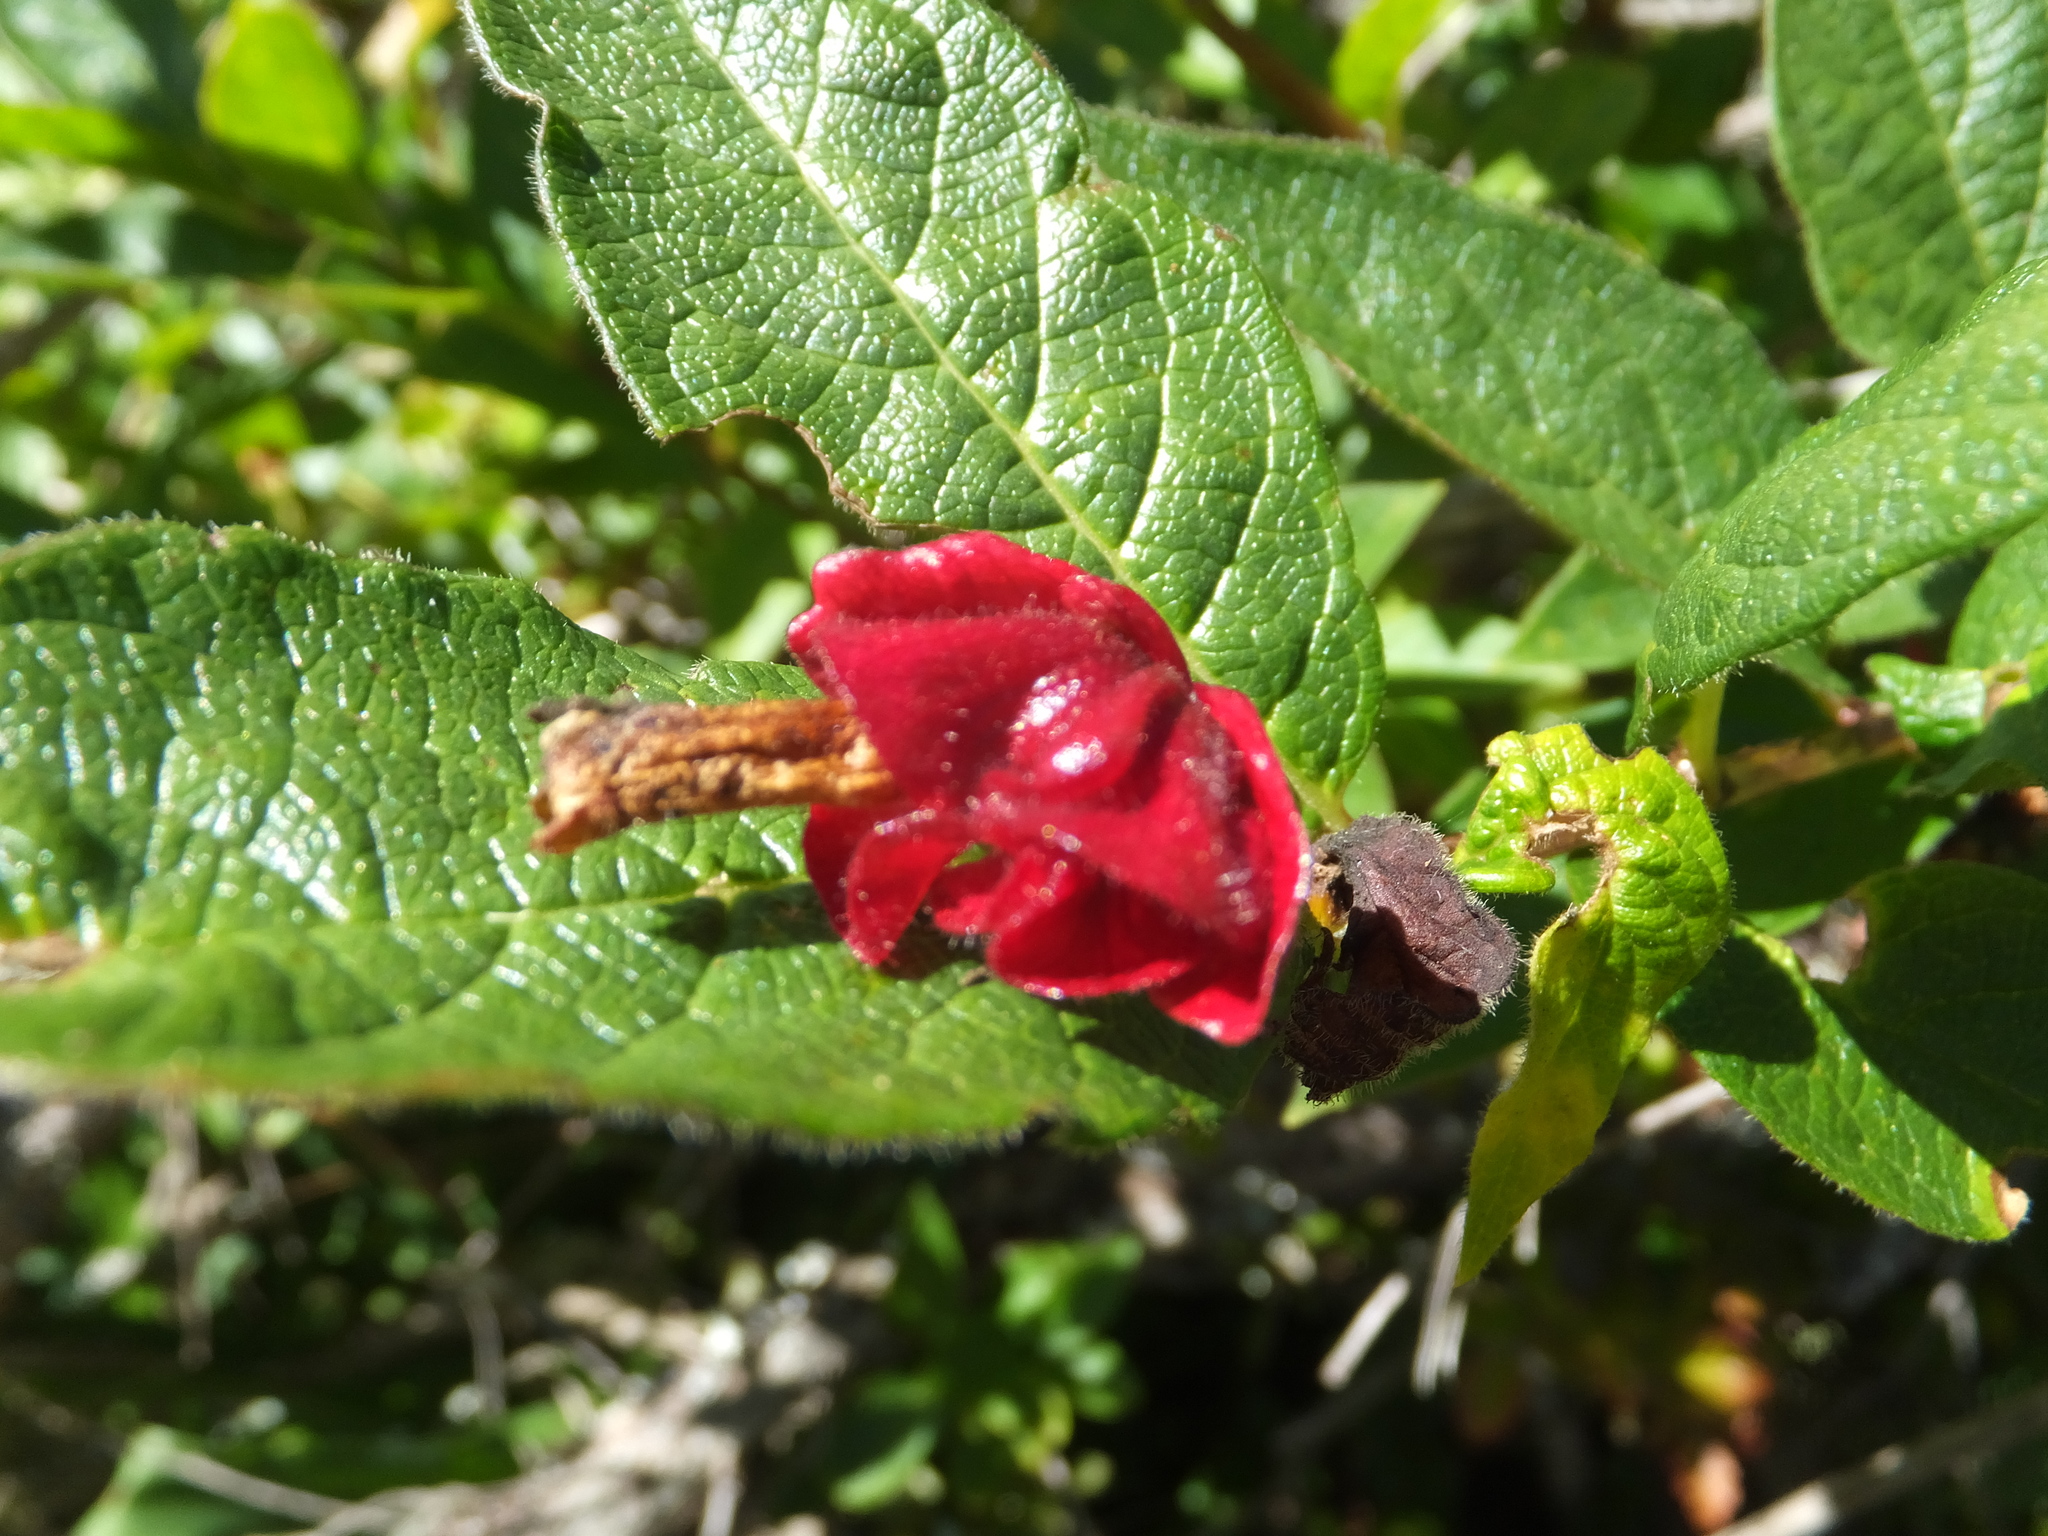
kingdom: Plantae
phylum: Tracheophyta
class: Magnoliopsida
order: Dipsacales
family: Caprifoliaceae
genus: Lonicera
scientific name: Lonicera involucrata
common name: Californian honeysuckle
